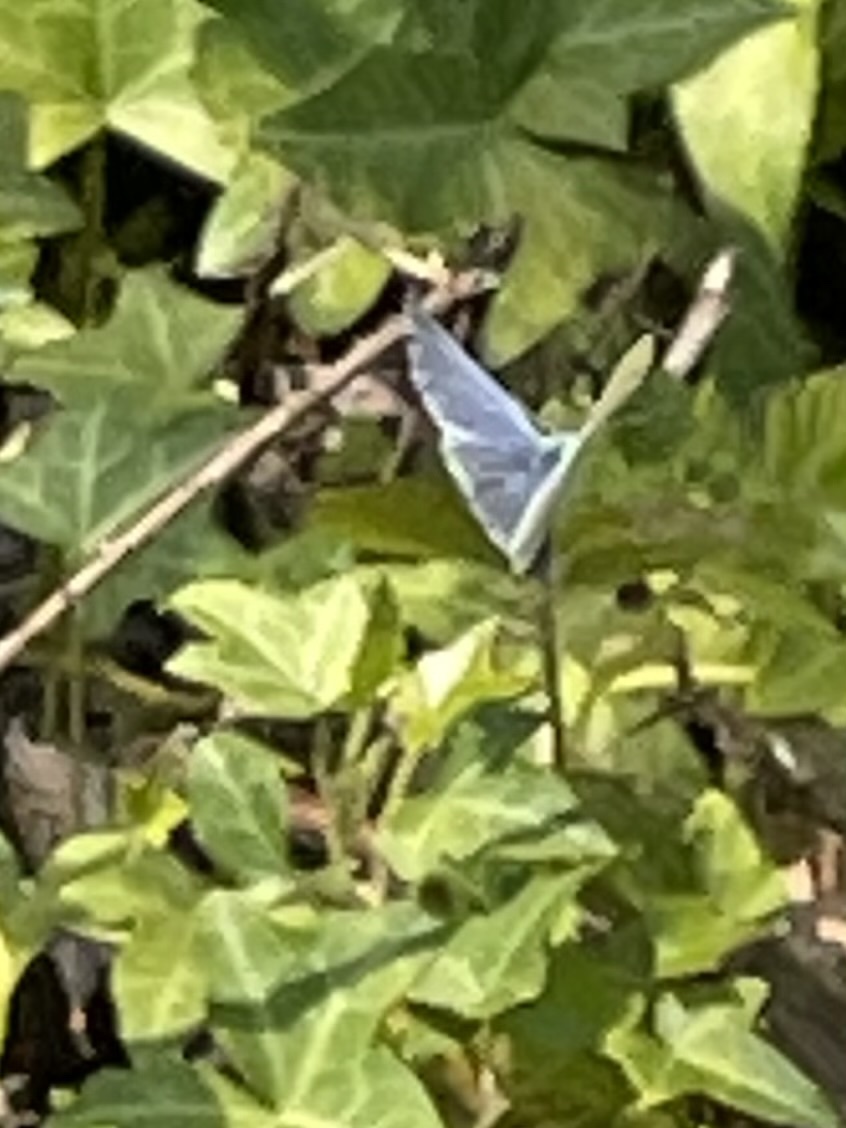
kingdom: Animalia
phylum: Arthropoda
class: Insecta
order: Lepidoptera
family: Lycaenidae
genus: Celastrina
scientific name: Celastrina ladon
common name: Spring azure
